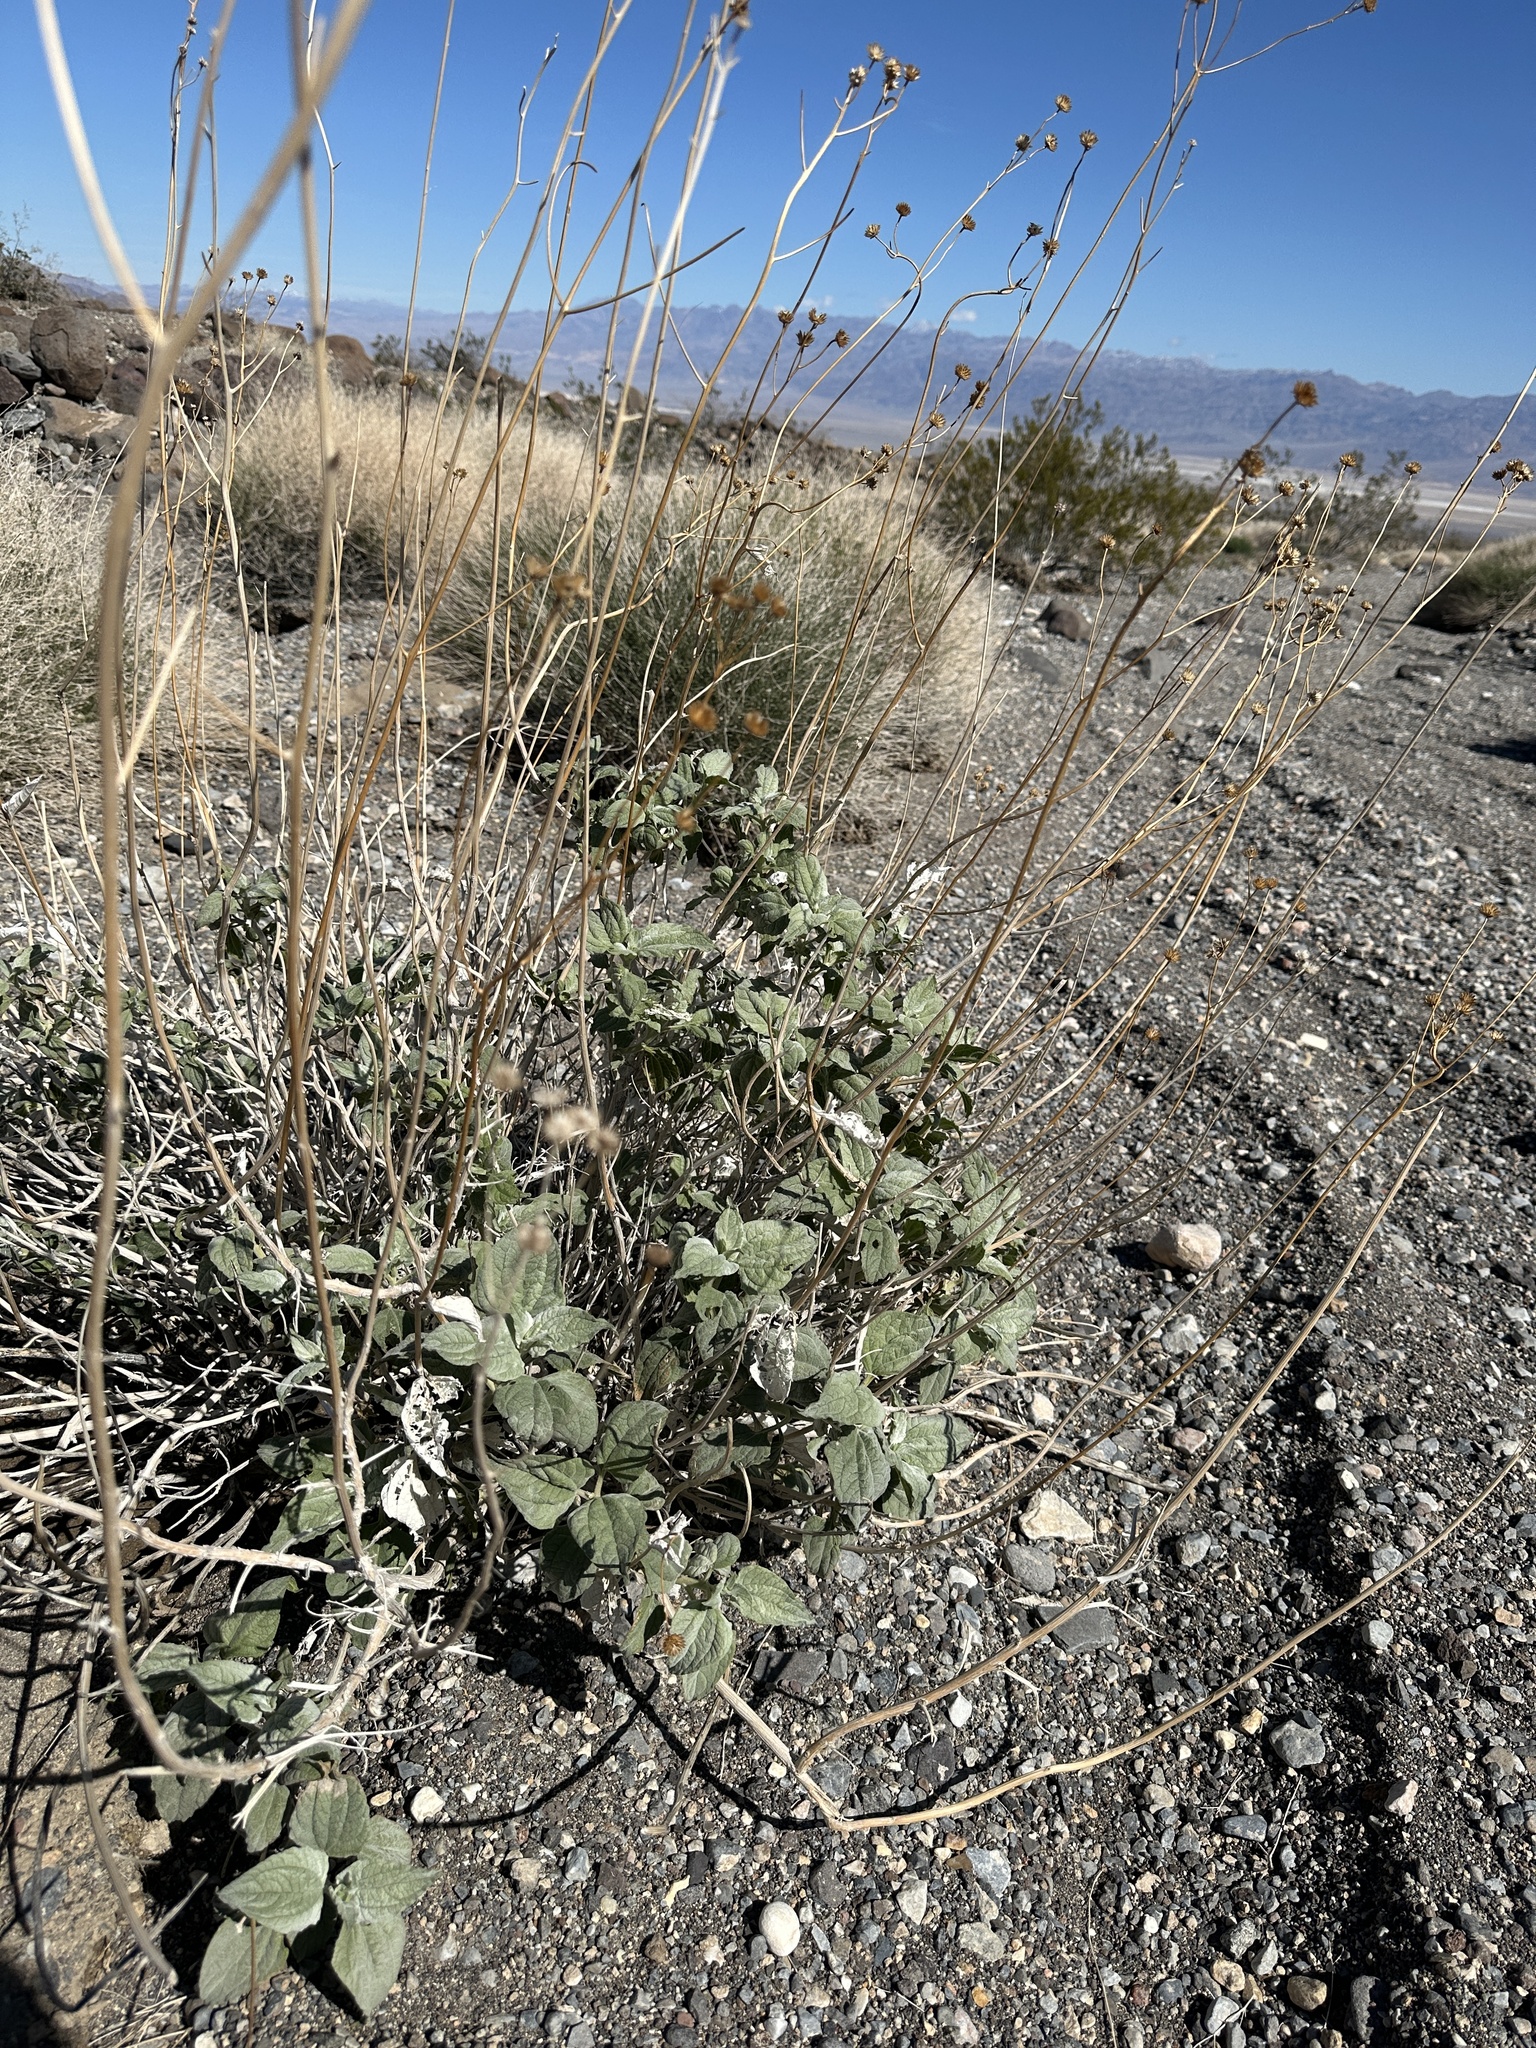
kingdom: Plantae
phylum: Tracheophyta
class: Magnoliopsida
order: Asterales
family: Asteraceae
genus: Bahiopsis
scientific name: Bahiopsis reticulata
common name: Death valley goldeneye
